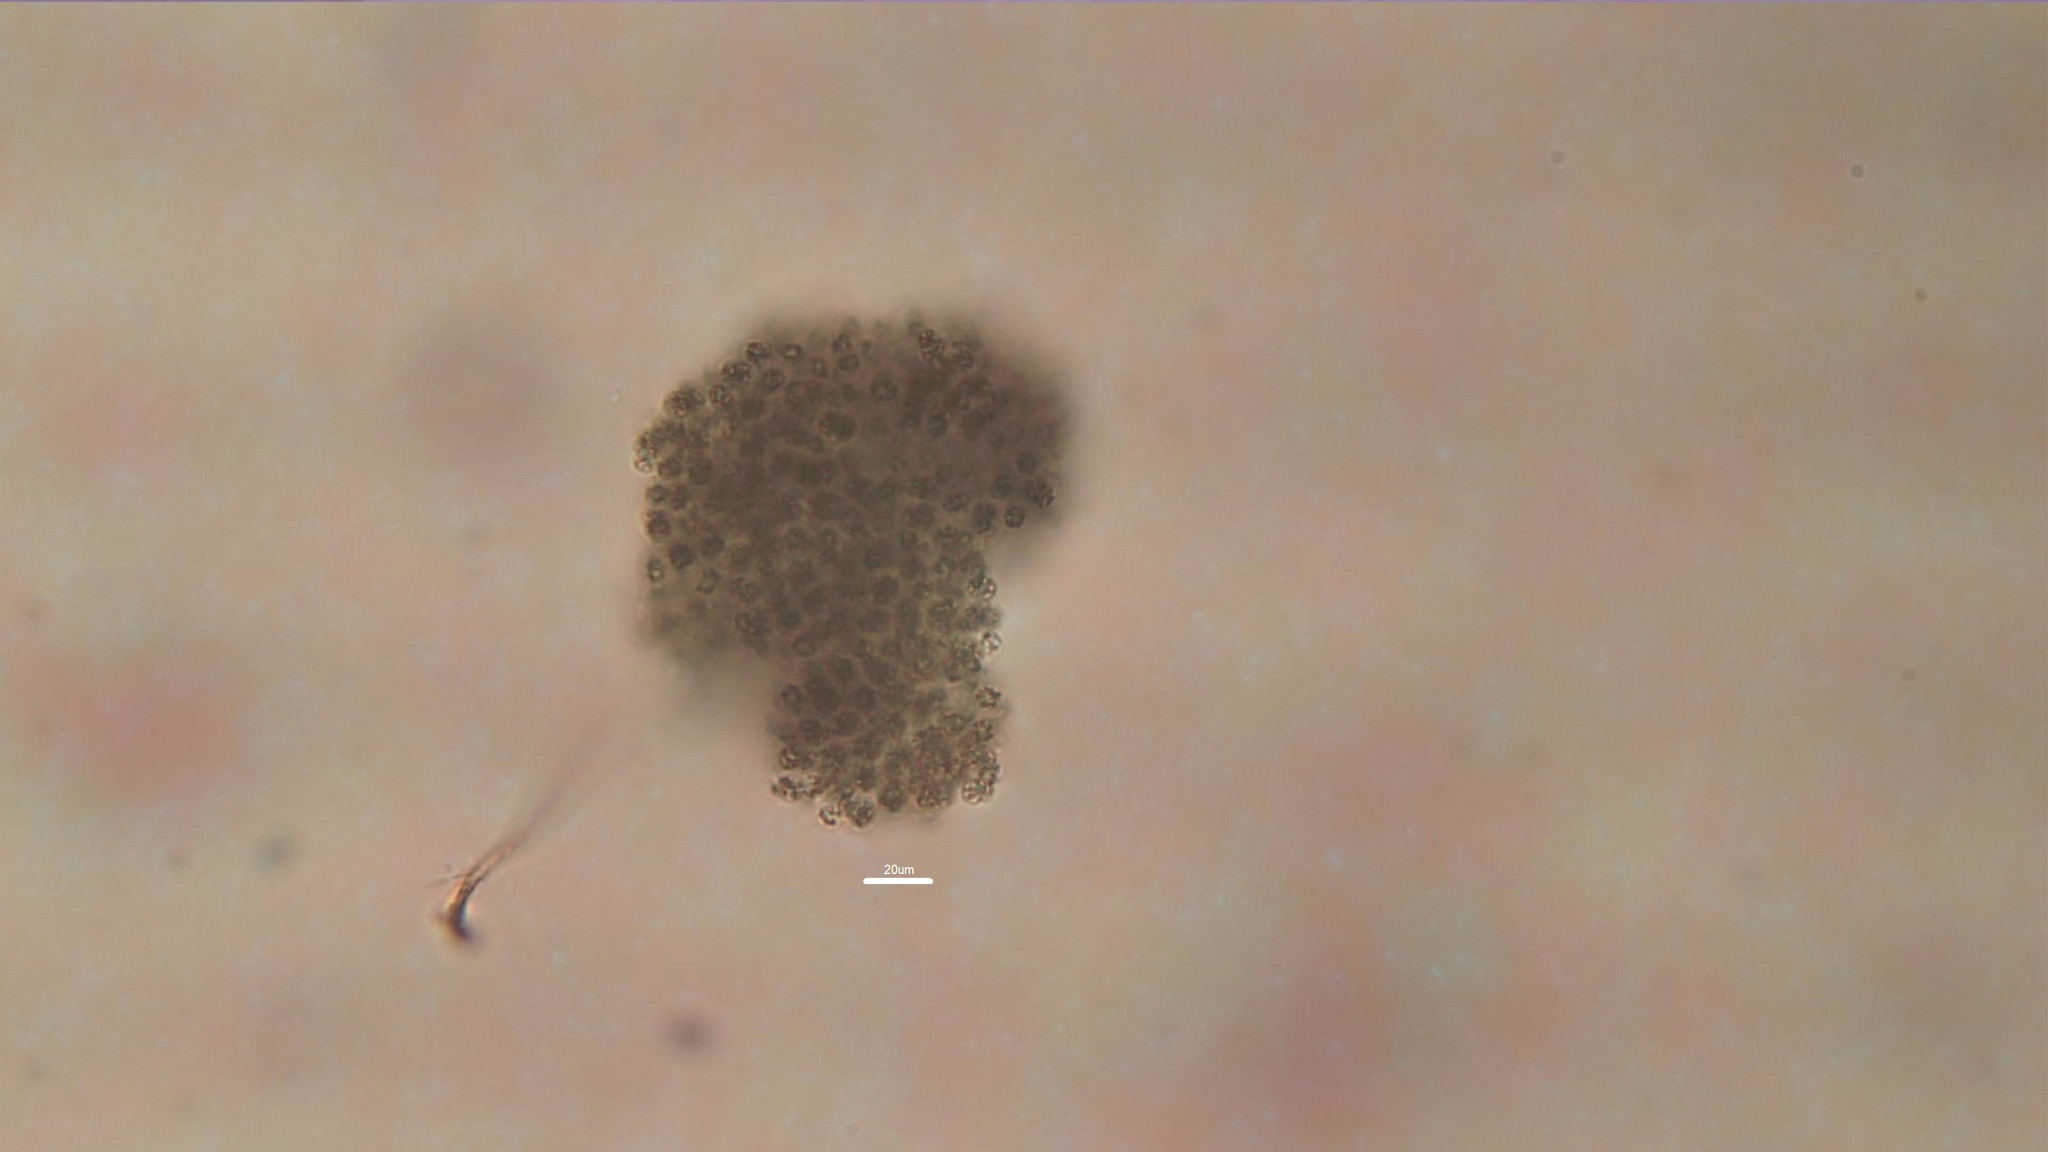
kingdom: Bacteria
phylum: Cyanobacteria
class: Cyanobacteriia
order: Cyanobacteriales
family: Microcystaceae
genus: Microcystis
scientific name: Microcystis aeruginosa
